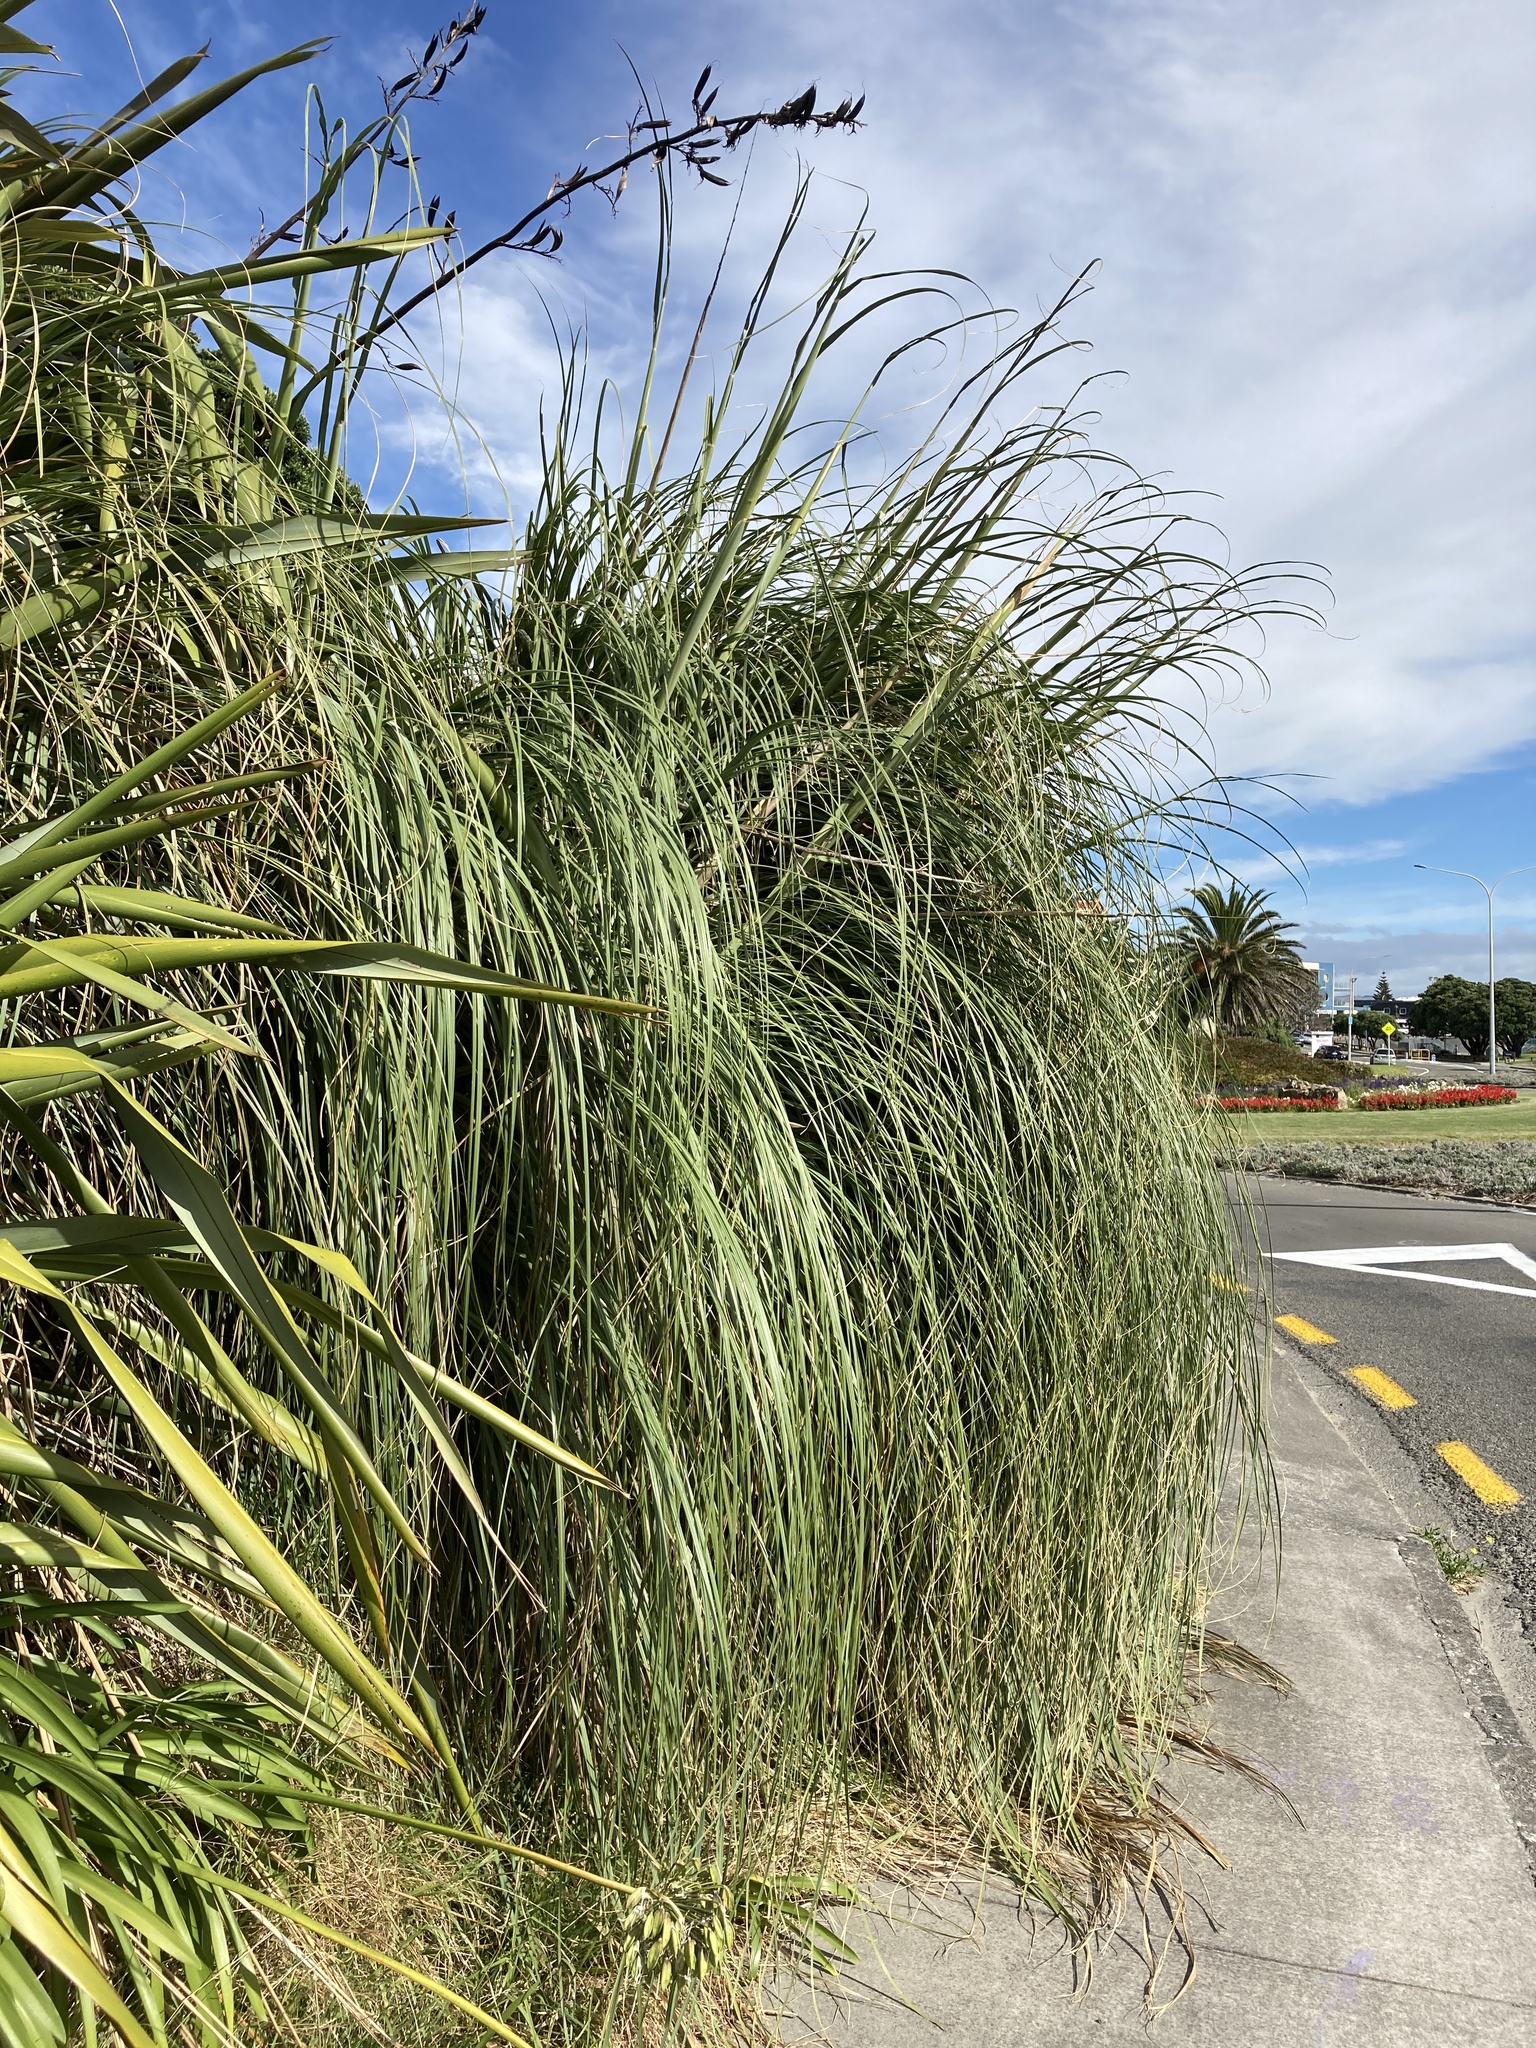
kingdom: Plantae
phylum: Tracheophyta
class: Liliopsida
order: Poales
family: Poaceae
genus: Cortaderia
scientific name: Cortaderia selloana
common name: Uruguayan pampas grass
